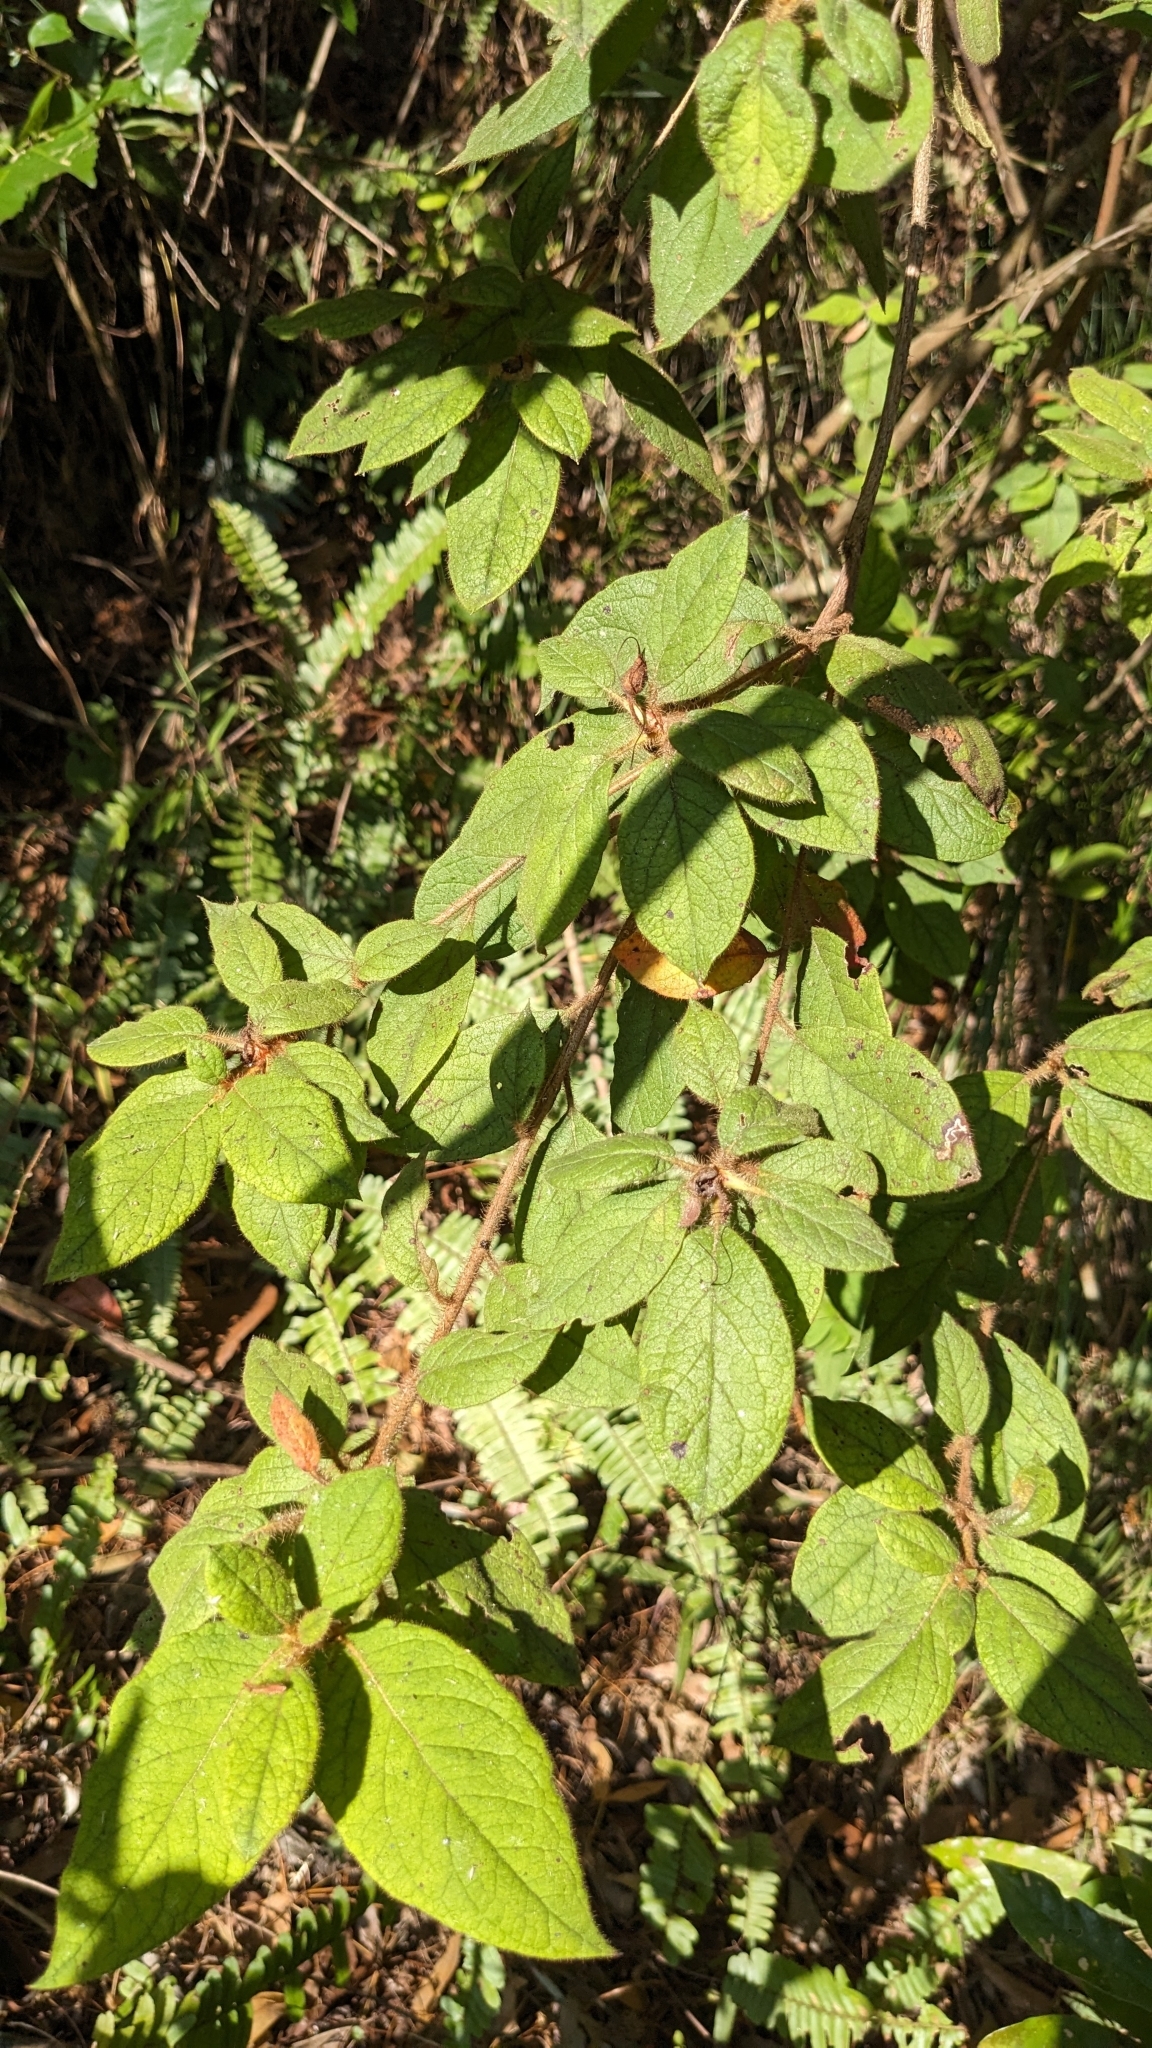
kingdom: Plantae
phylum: Tracheophyta
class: Magnoliopsida
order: Ericales
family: Ericaceae
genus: Rhododendron
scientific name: Rhododendron oldhamii
